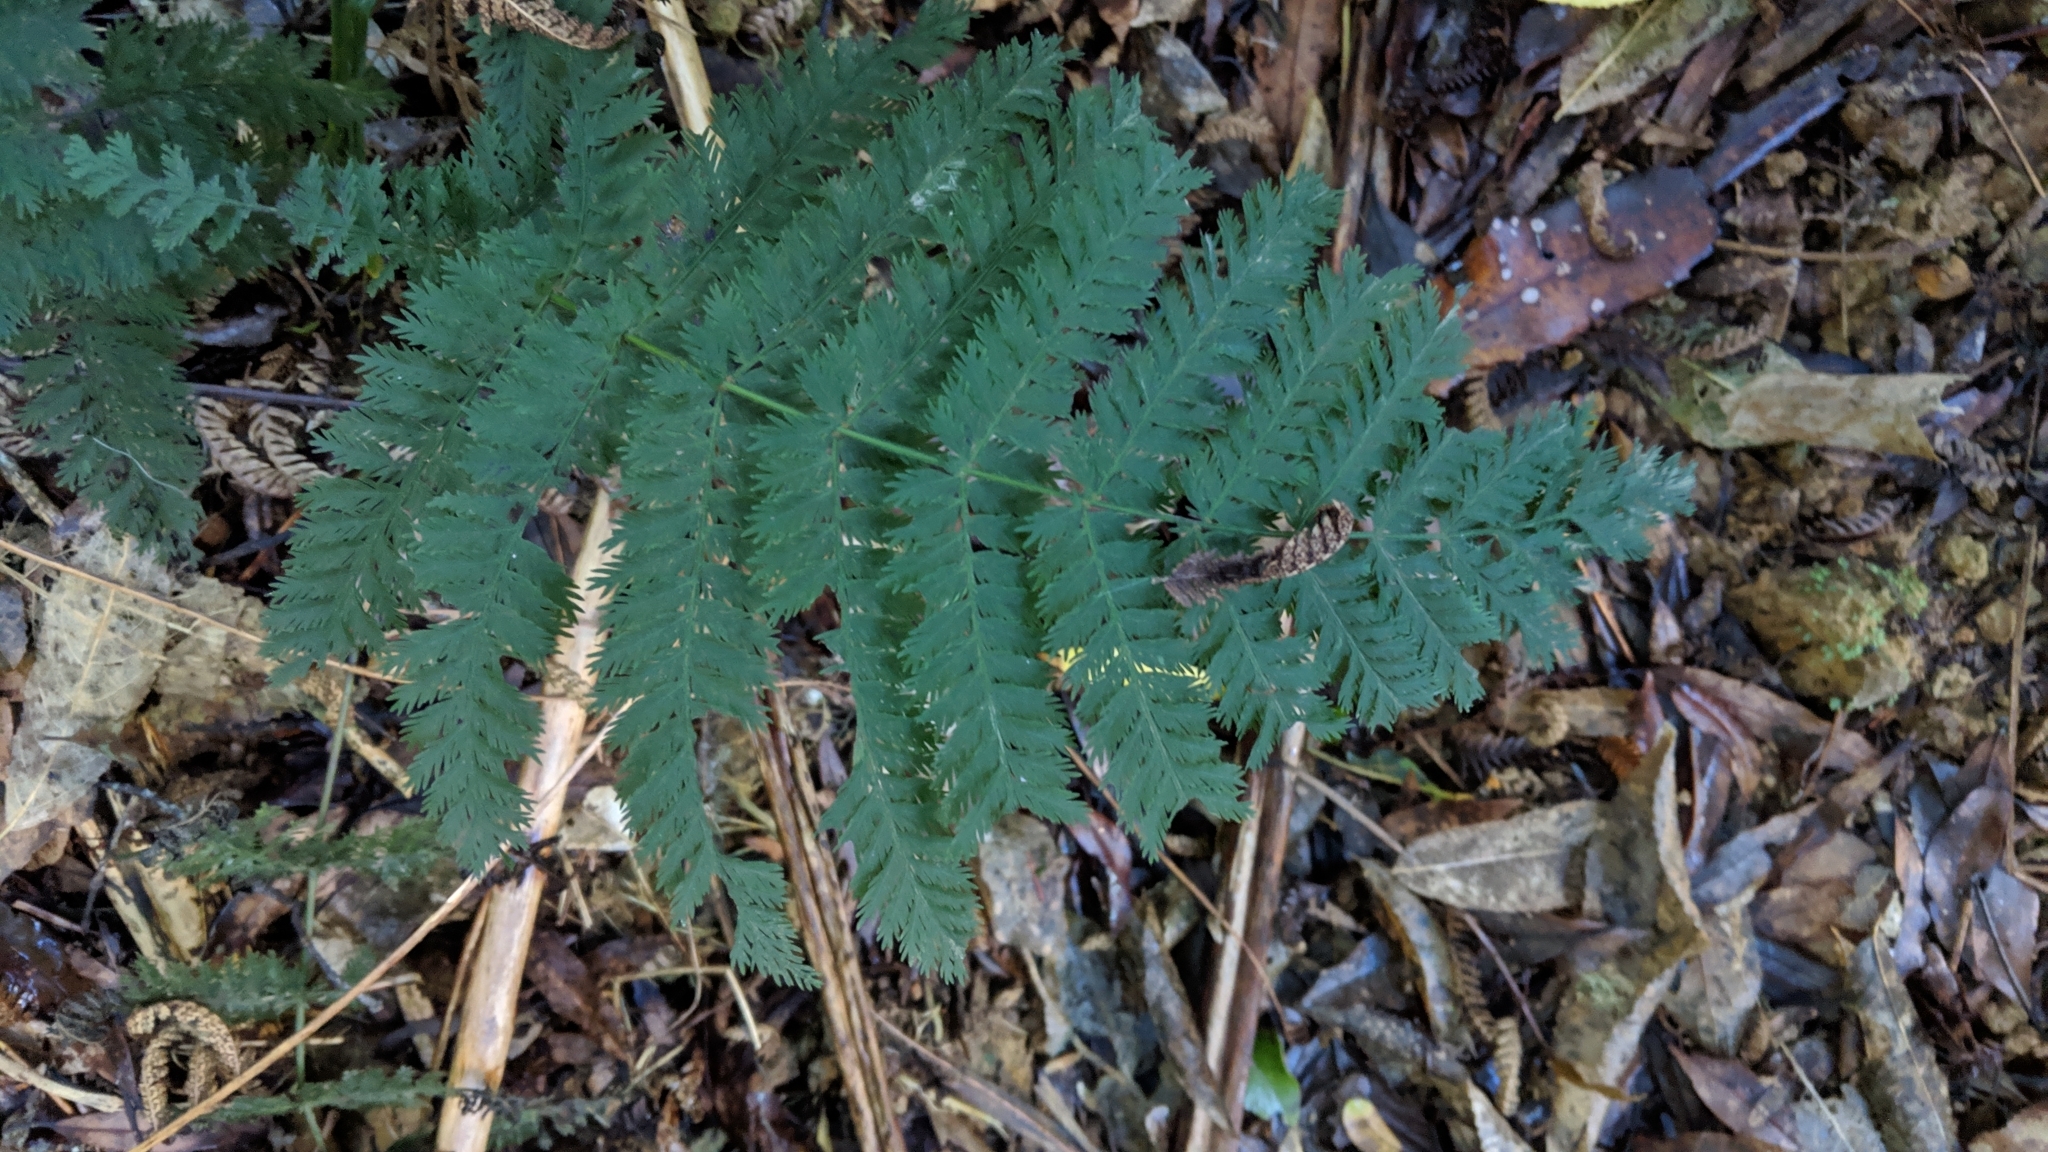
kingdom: Plantae
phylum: Tracheophyta
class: Polypodiopsida
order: Osmundales
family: Osmundaceae
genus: Leptopteris
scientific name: Leptopteris hymenophylloides
